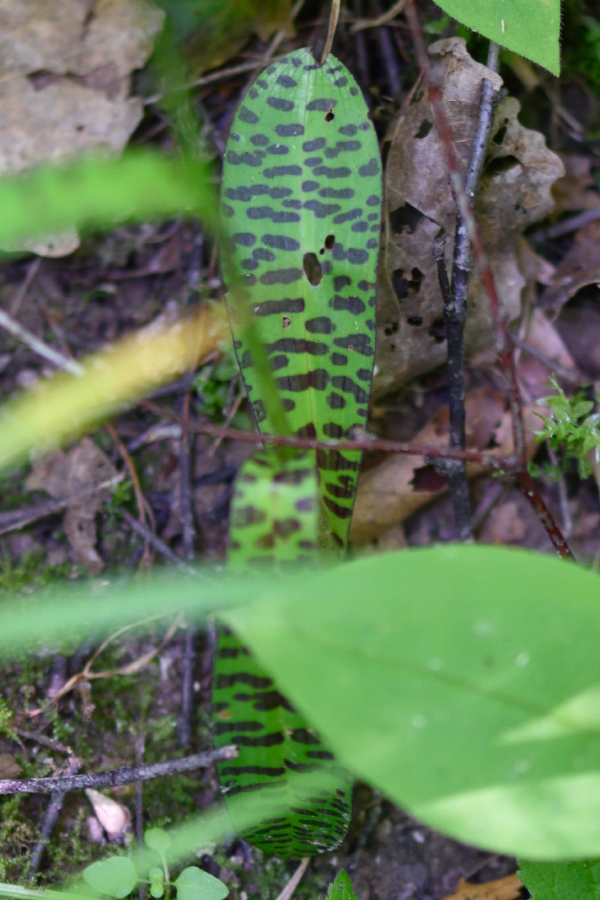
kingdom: Plantae
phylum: Tracheophyta
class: Liliopsida
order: Asparagales
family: Orchidaceae
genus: Dactylorhiza
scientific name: Dactylorhiza maculata
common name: Heath spotted-orchid
